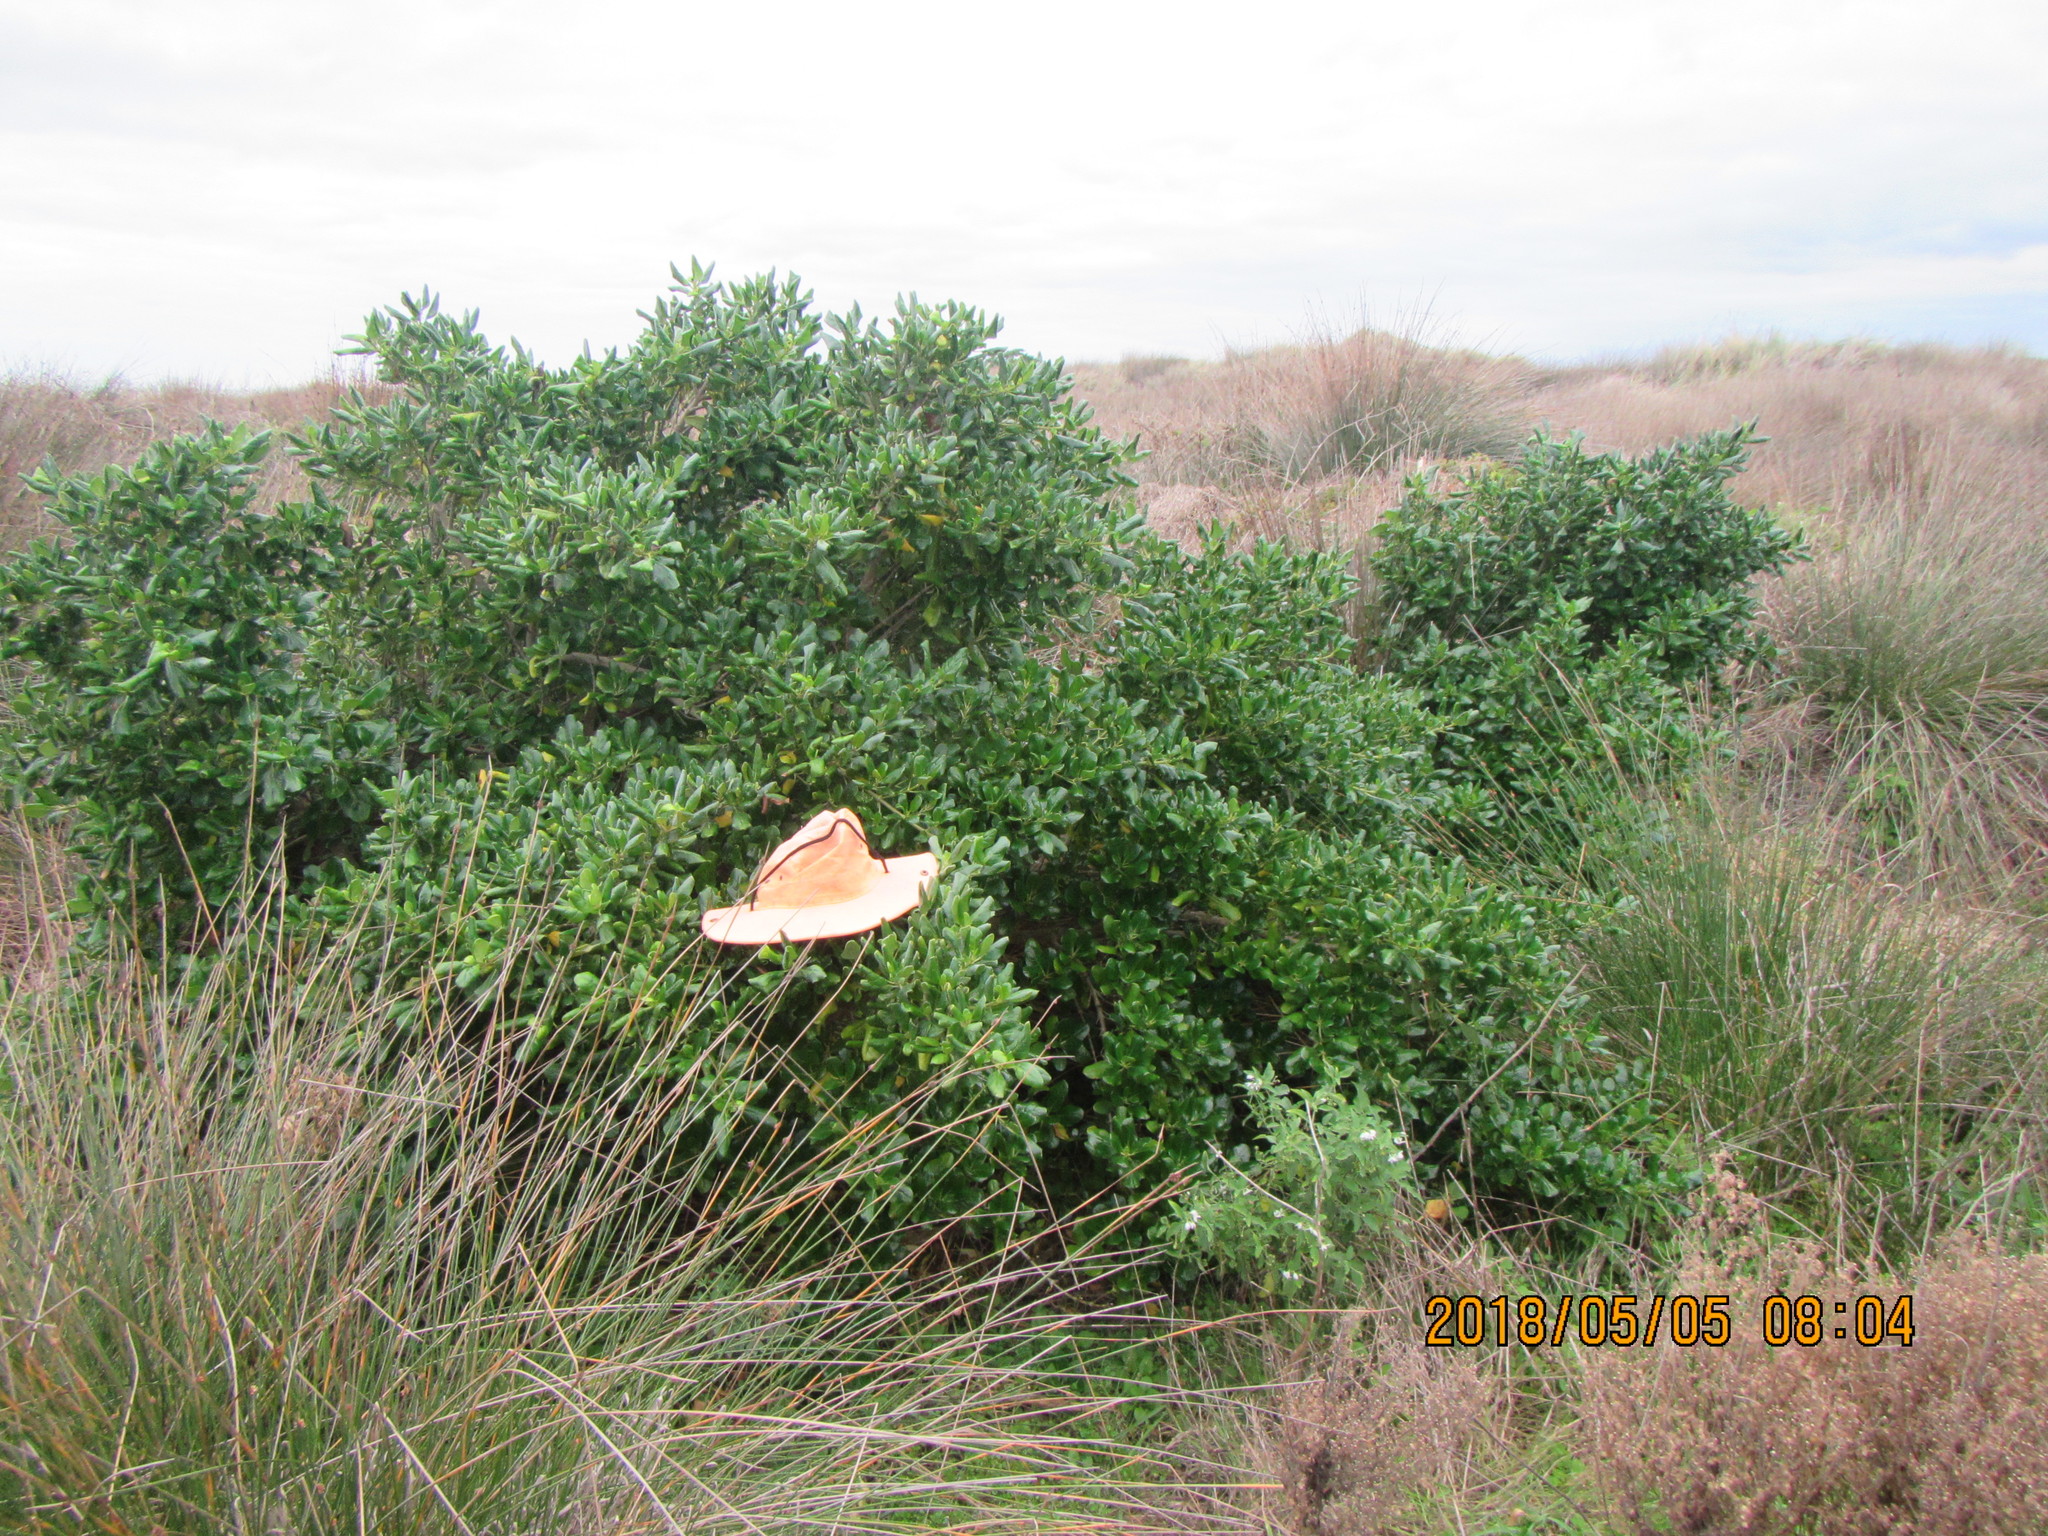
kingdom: Plantae
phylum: Tracheophyta
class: Magnoliopsida
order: Gentianales
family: Rubiaceae
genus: Coprosma
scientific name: Coprosma repens
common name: Tree bedstraw
